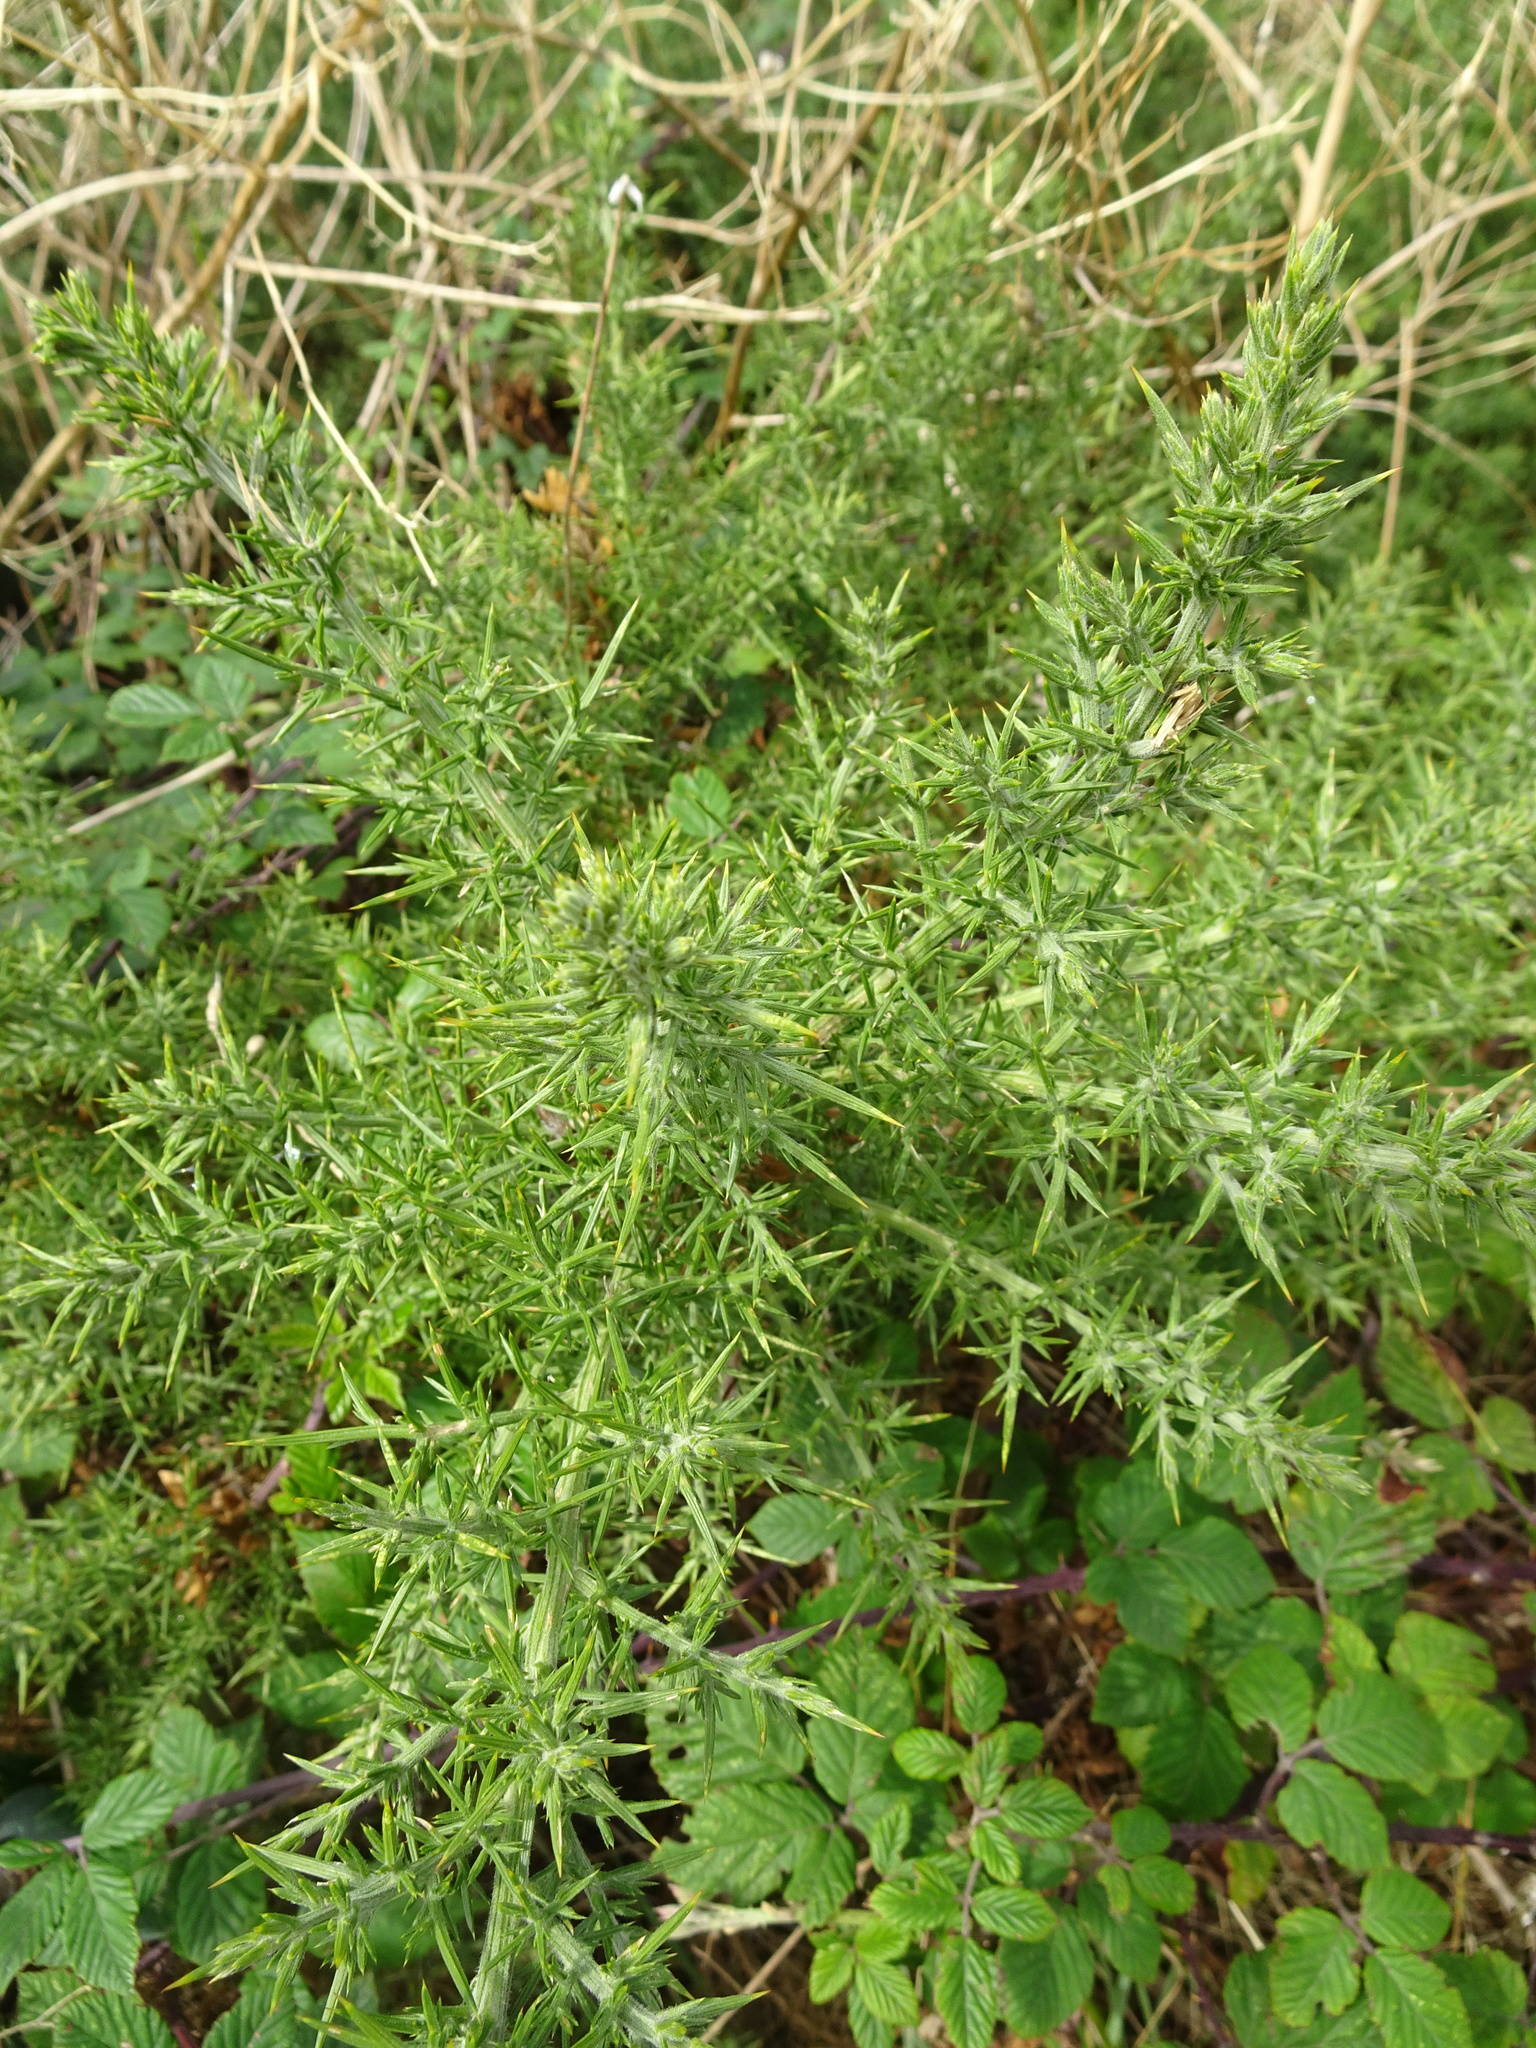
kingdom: Plantae
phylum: Tracheophyta
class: Magnoliopsida
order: Fabales
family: Fabaceae
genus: Ulex
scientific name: Ulex europaeus
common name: Common gorse
